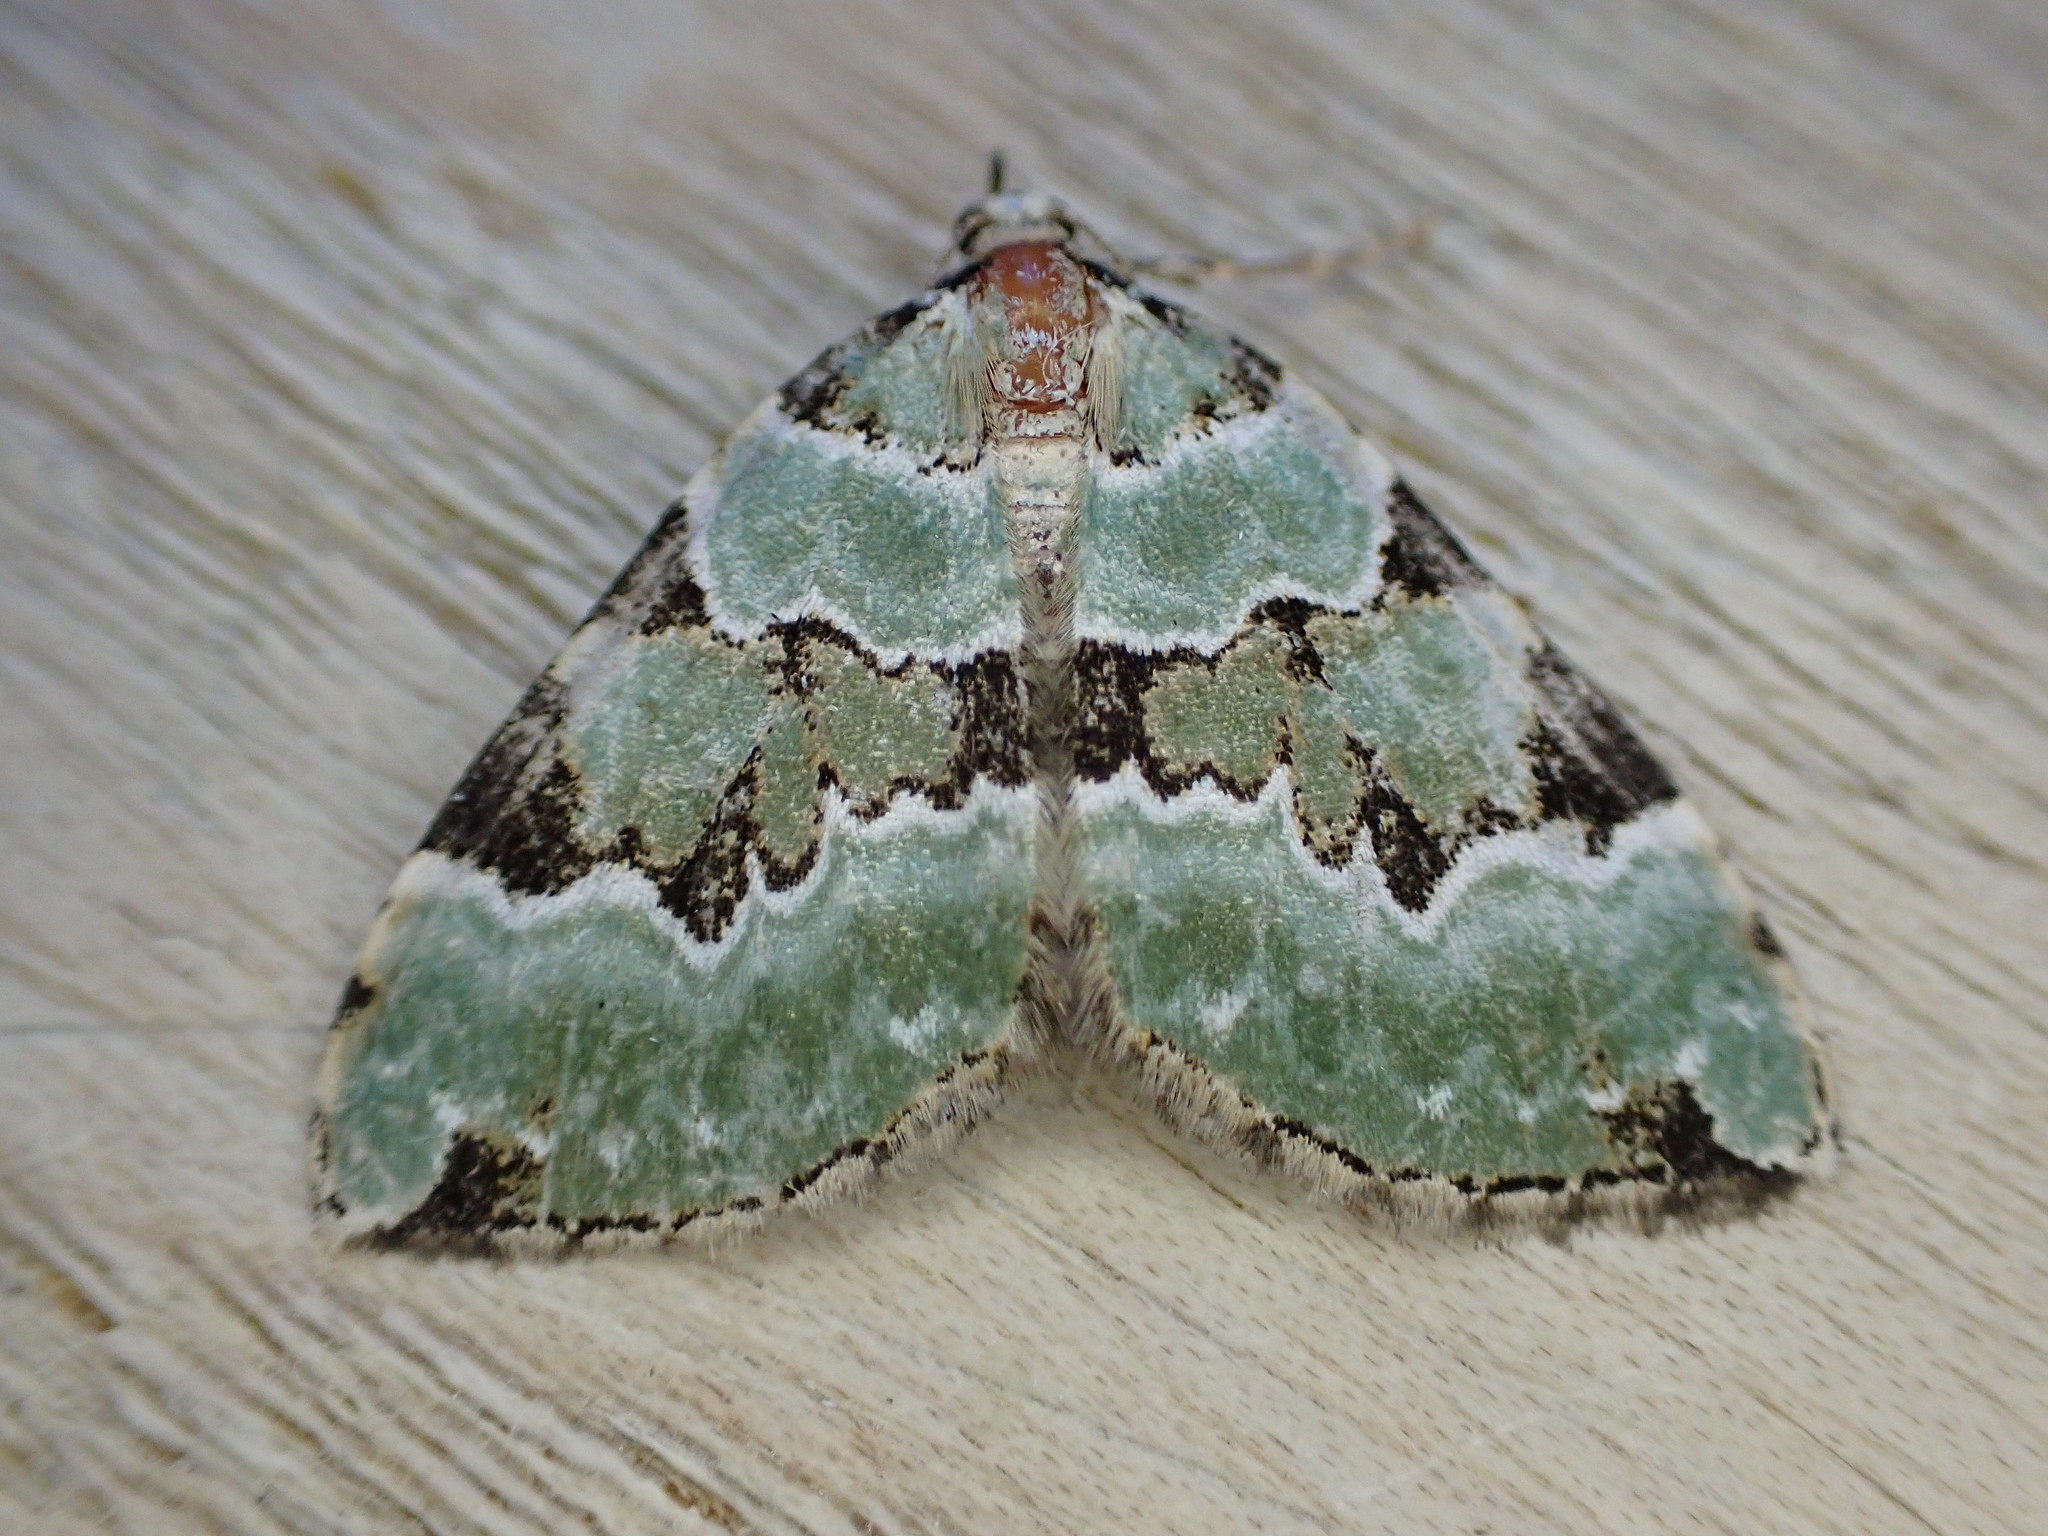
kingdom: Animalia
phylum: Arthropoda
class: Insecta
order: Lepidoptera
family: Geometridae
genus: Colostygia
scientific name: Colostygia pectinataria
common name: Green carpet
